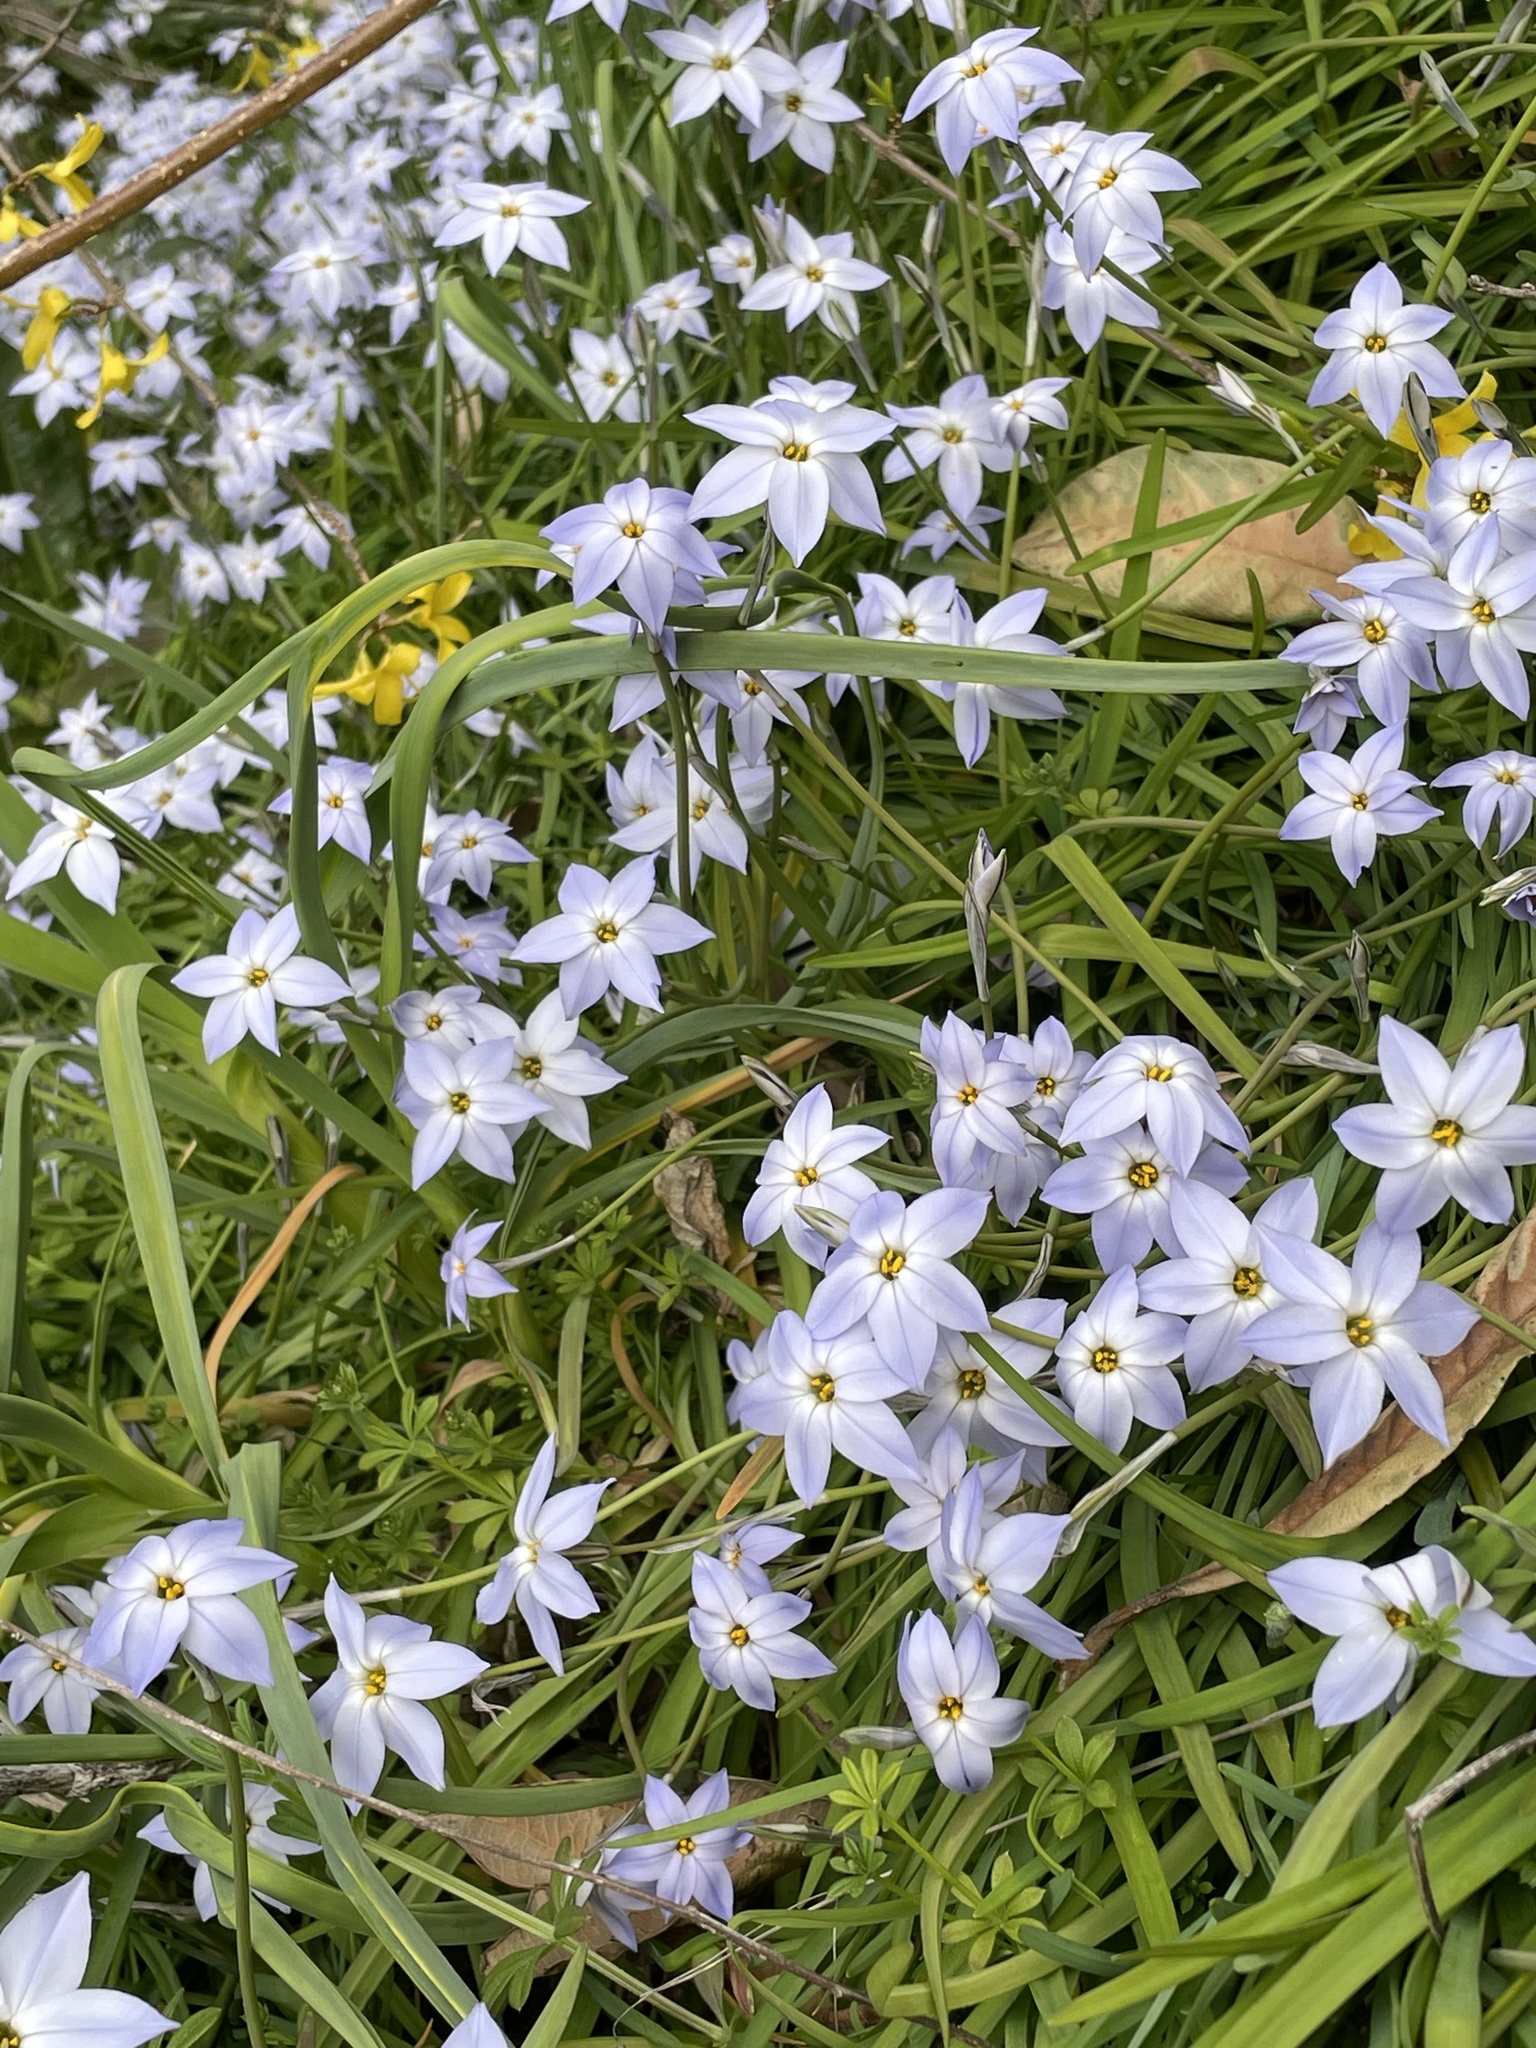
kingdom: Plantae
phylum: Tracheophyta
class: Liliopsida
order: Asparagales
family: Amaryllidaceae
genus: Ipheion
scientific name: Ipheion uniflorum
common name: Spring starflower
